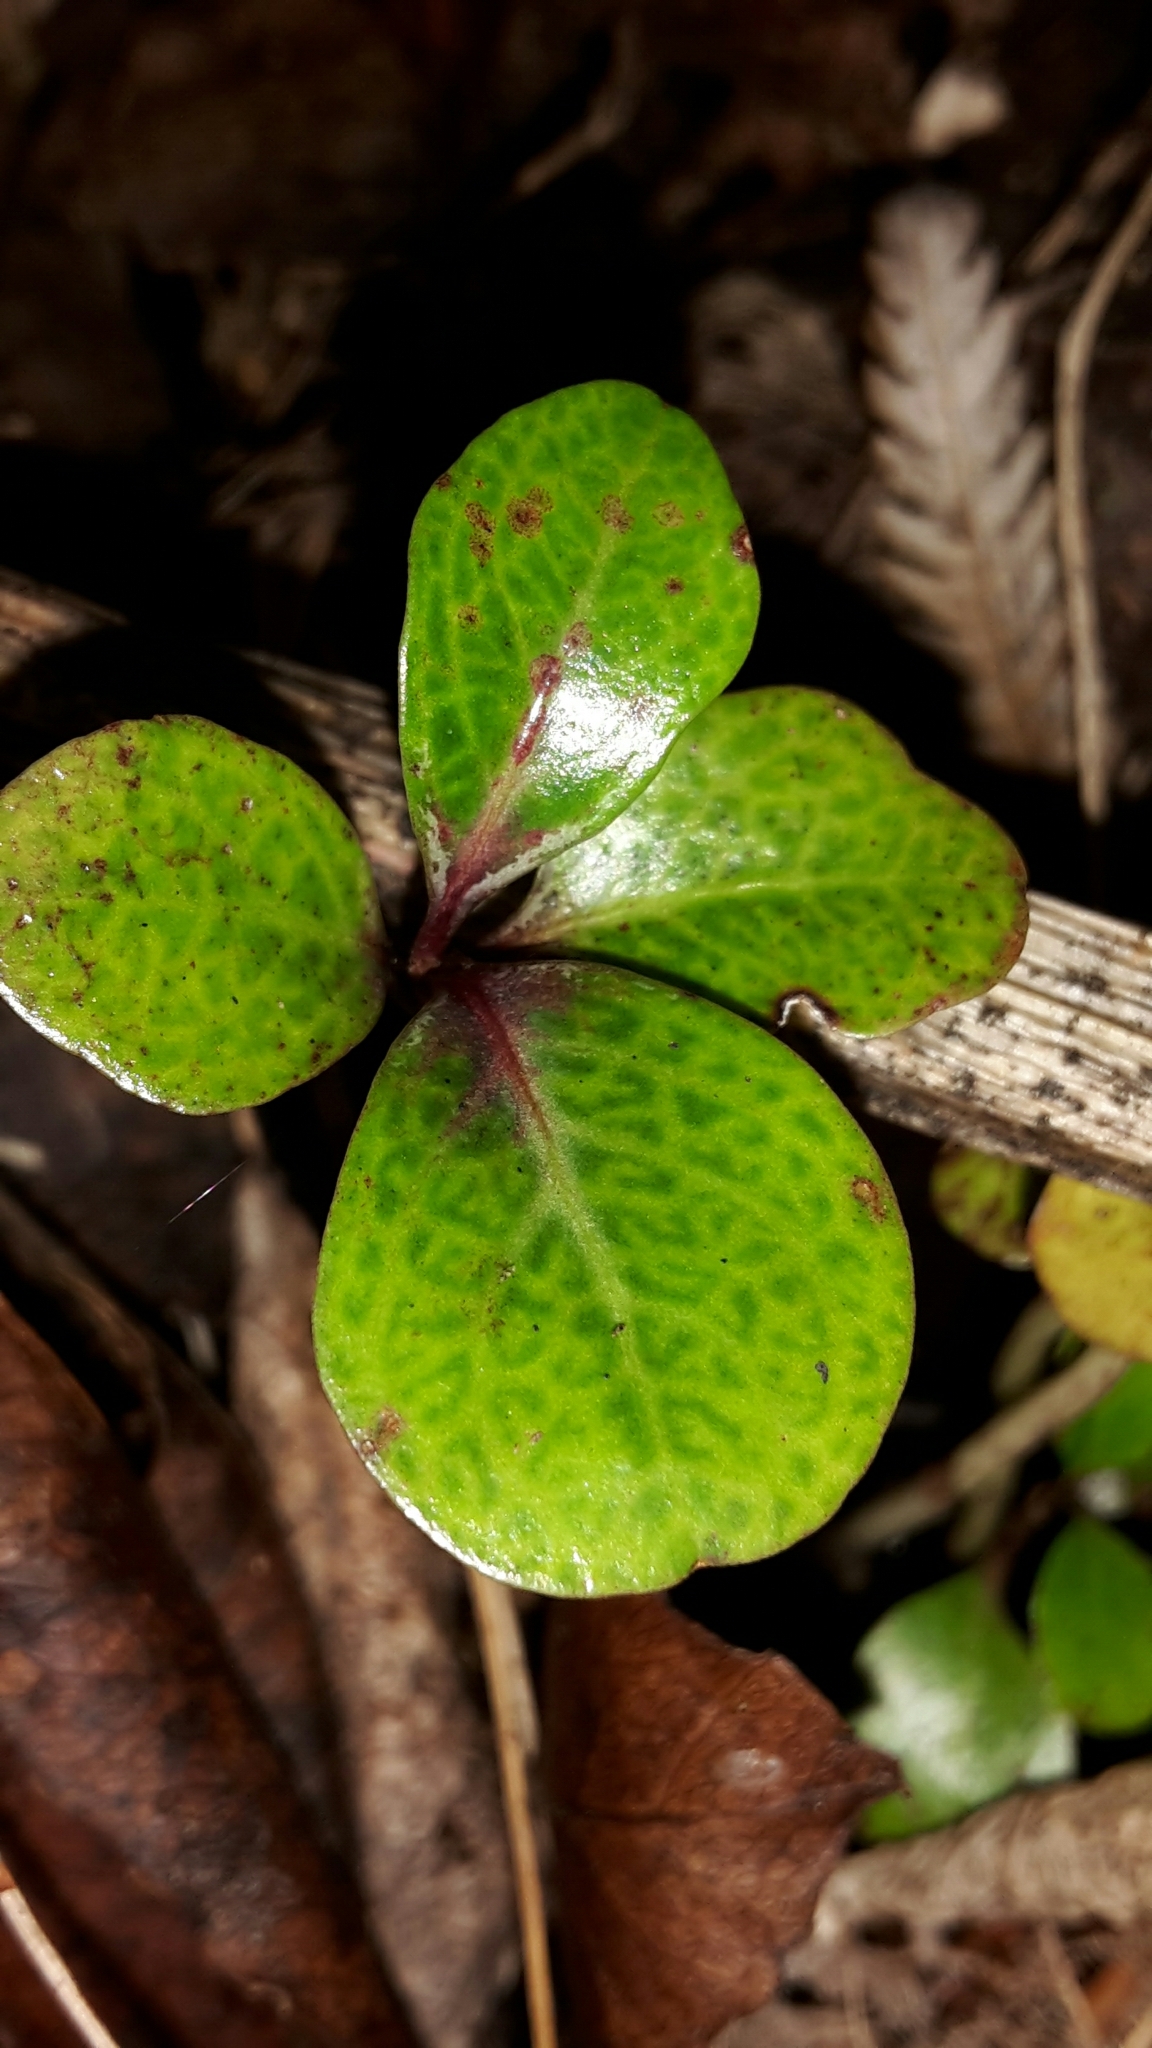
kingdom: Plantae
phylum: Tracheophyta
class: Magnoliopsida
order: Asterales
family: Alseuosmiaceae
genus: Alseuosmia
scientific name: Alseuosmia quercifolia
